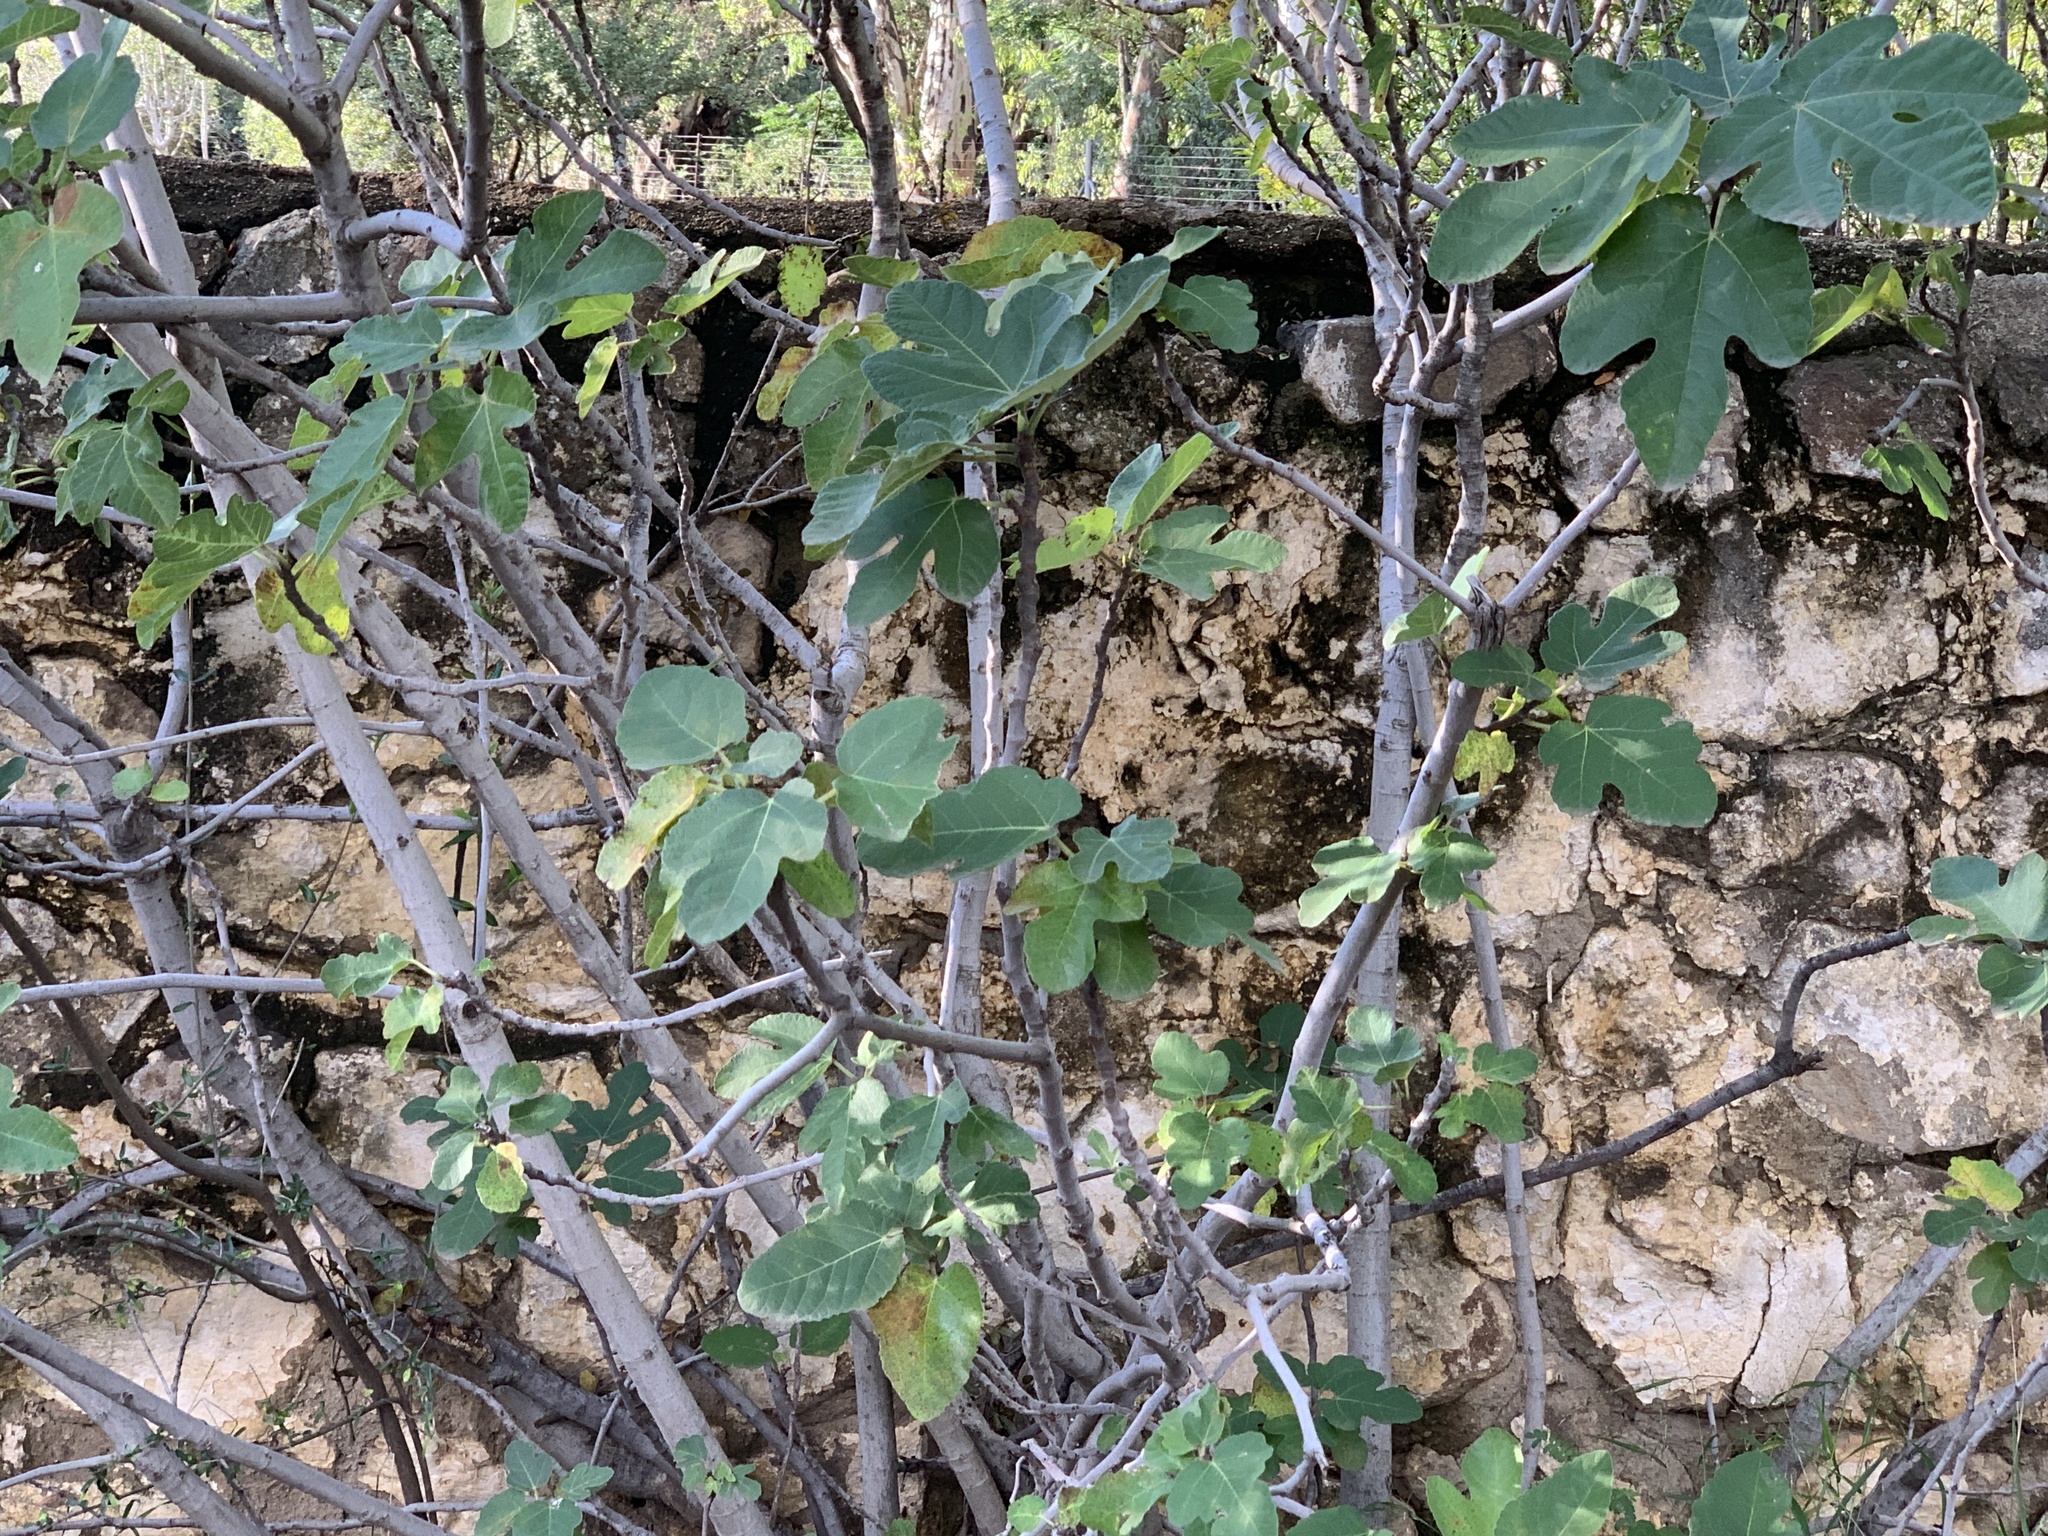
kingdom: Plantae
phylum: Tracheophyta
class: Magnoliopsida
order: Rosales
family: Moraceae
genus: Ficus
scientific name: Ficus carica
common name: Fig
